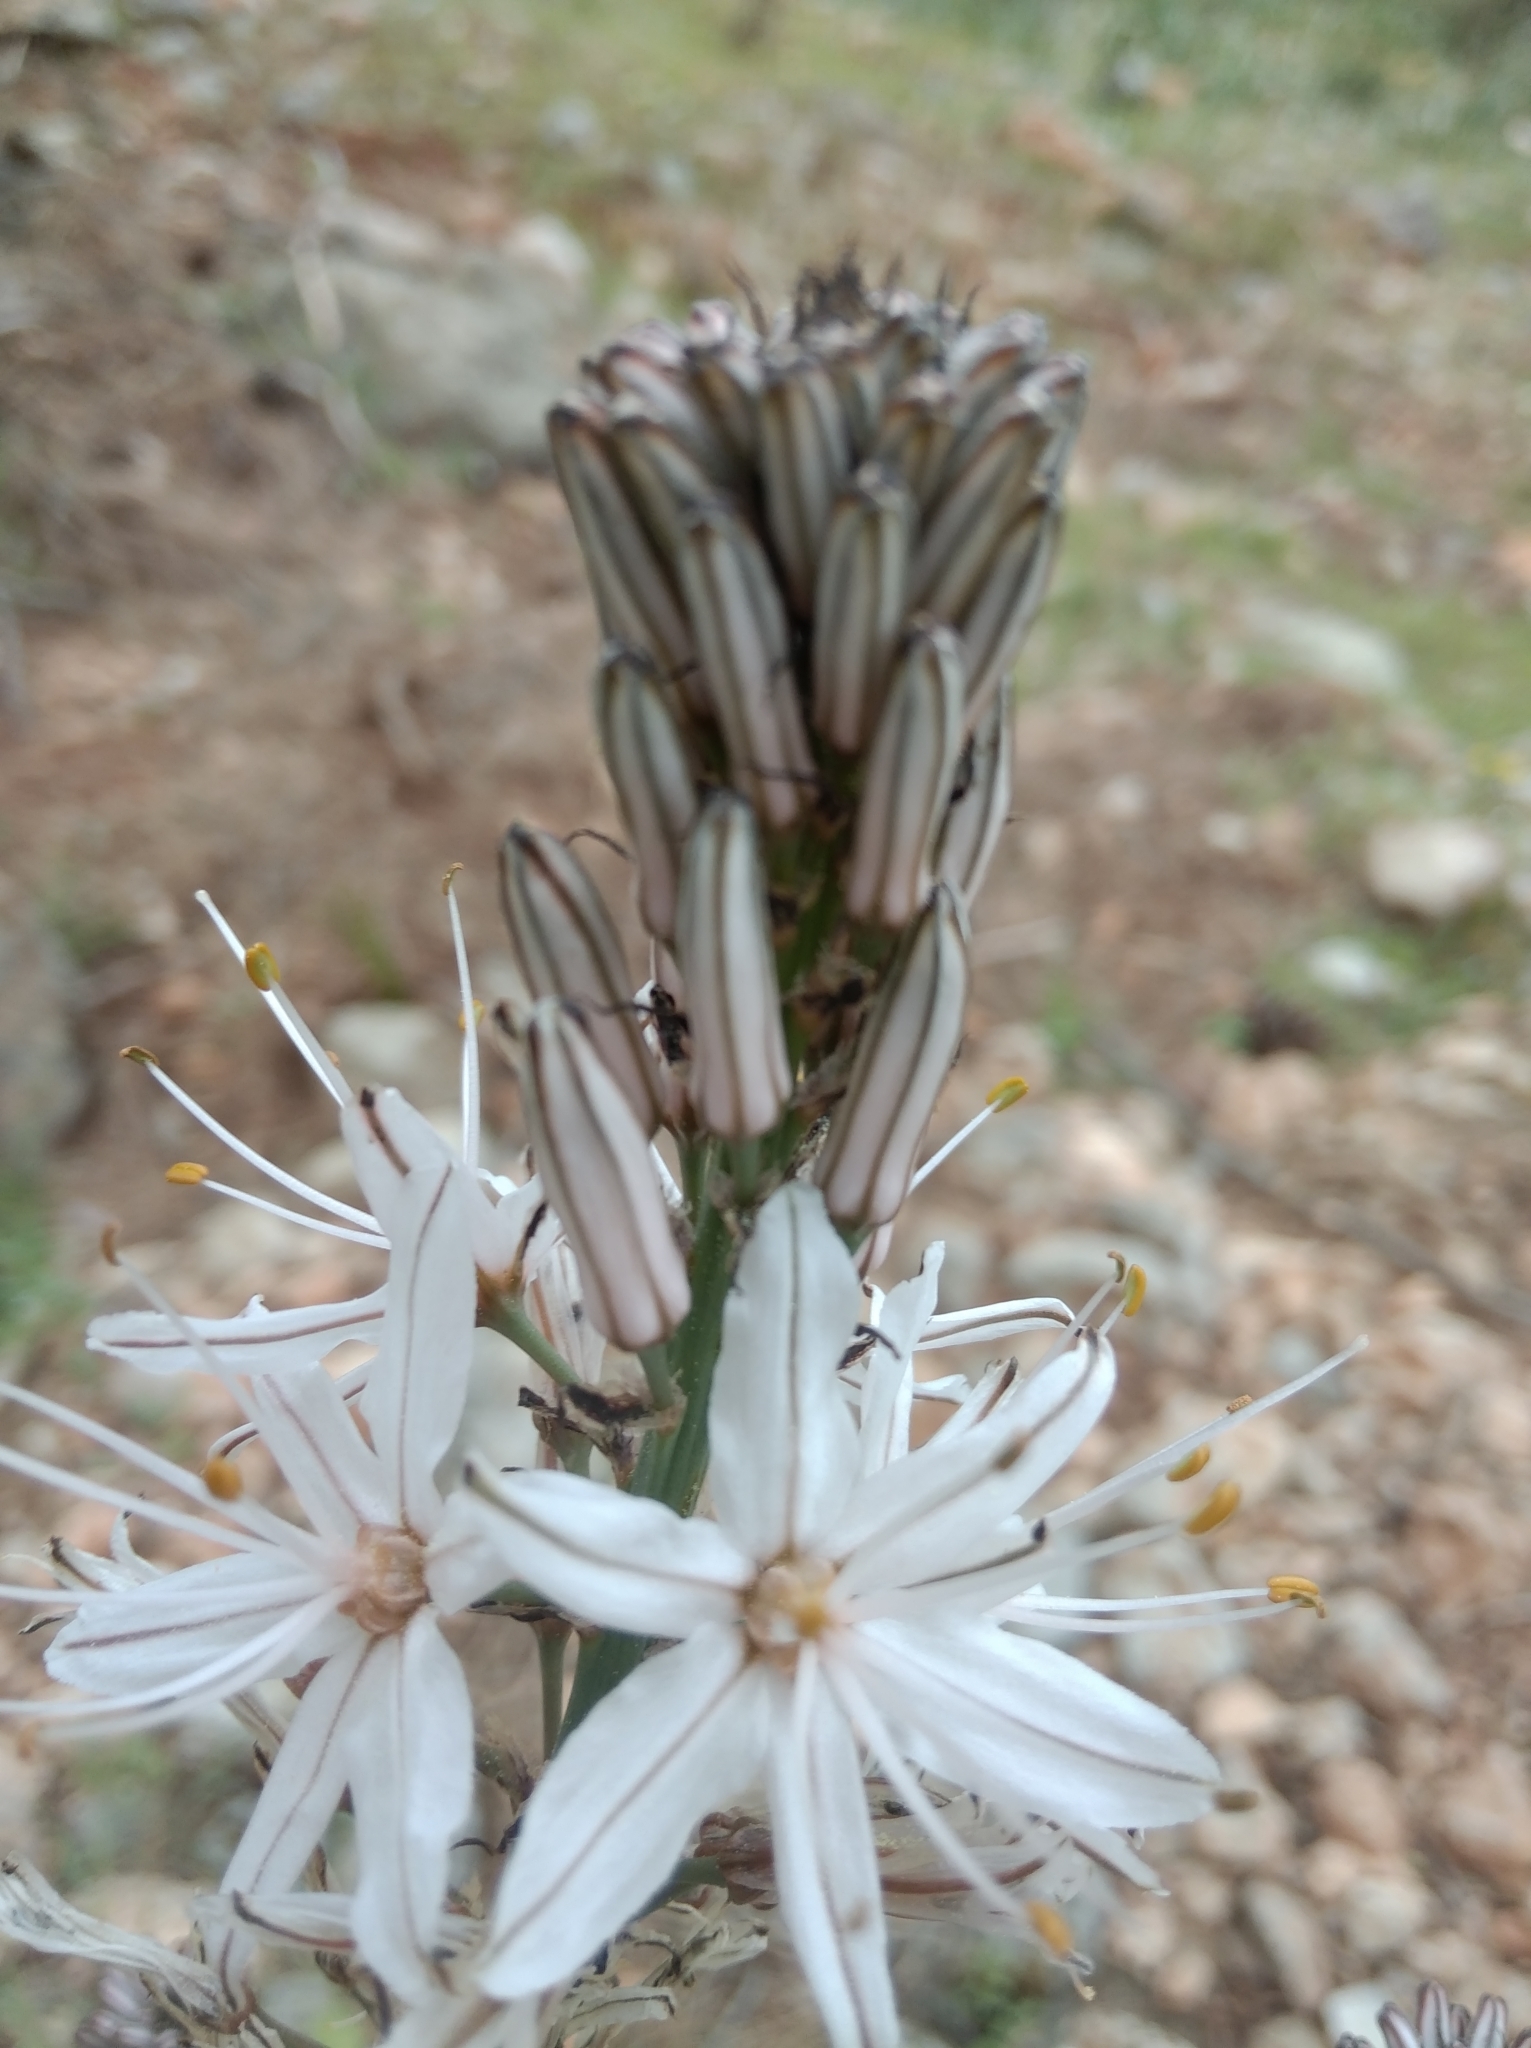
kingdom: Plantae
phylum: Tracheophyta
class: Liliopsida
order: Asparagales
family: Asphodelaceae
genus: Asphodelus
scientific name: Asphodelus ramosus
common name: Silverrod
